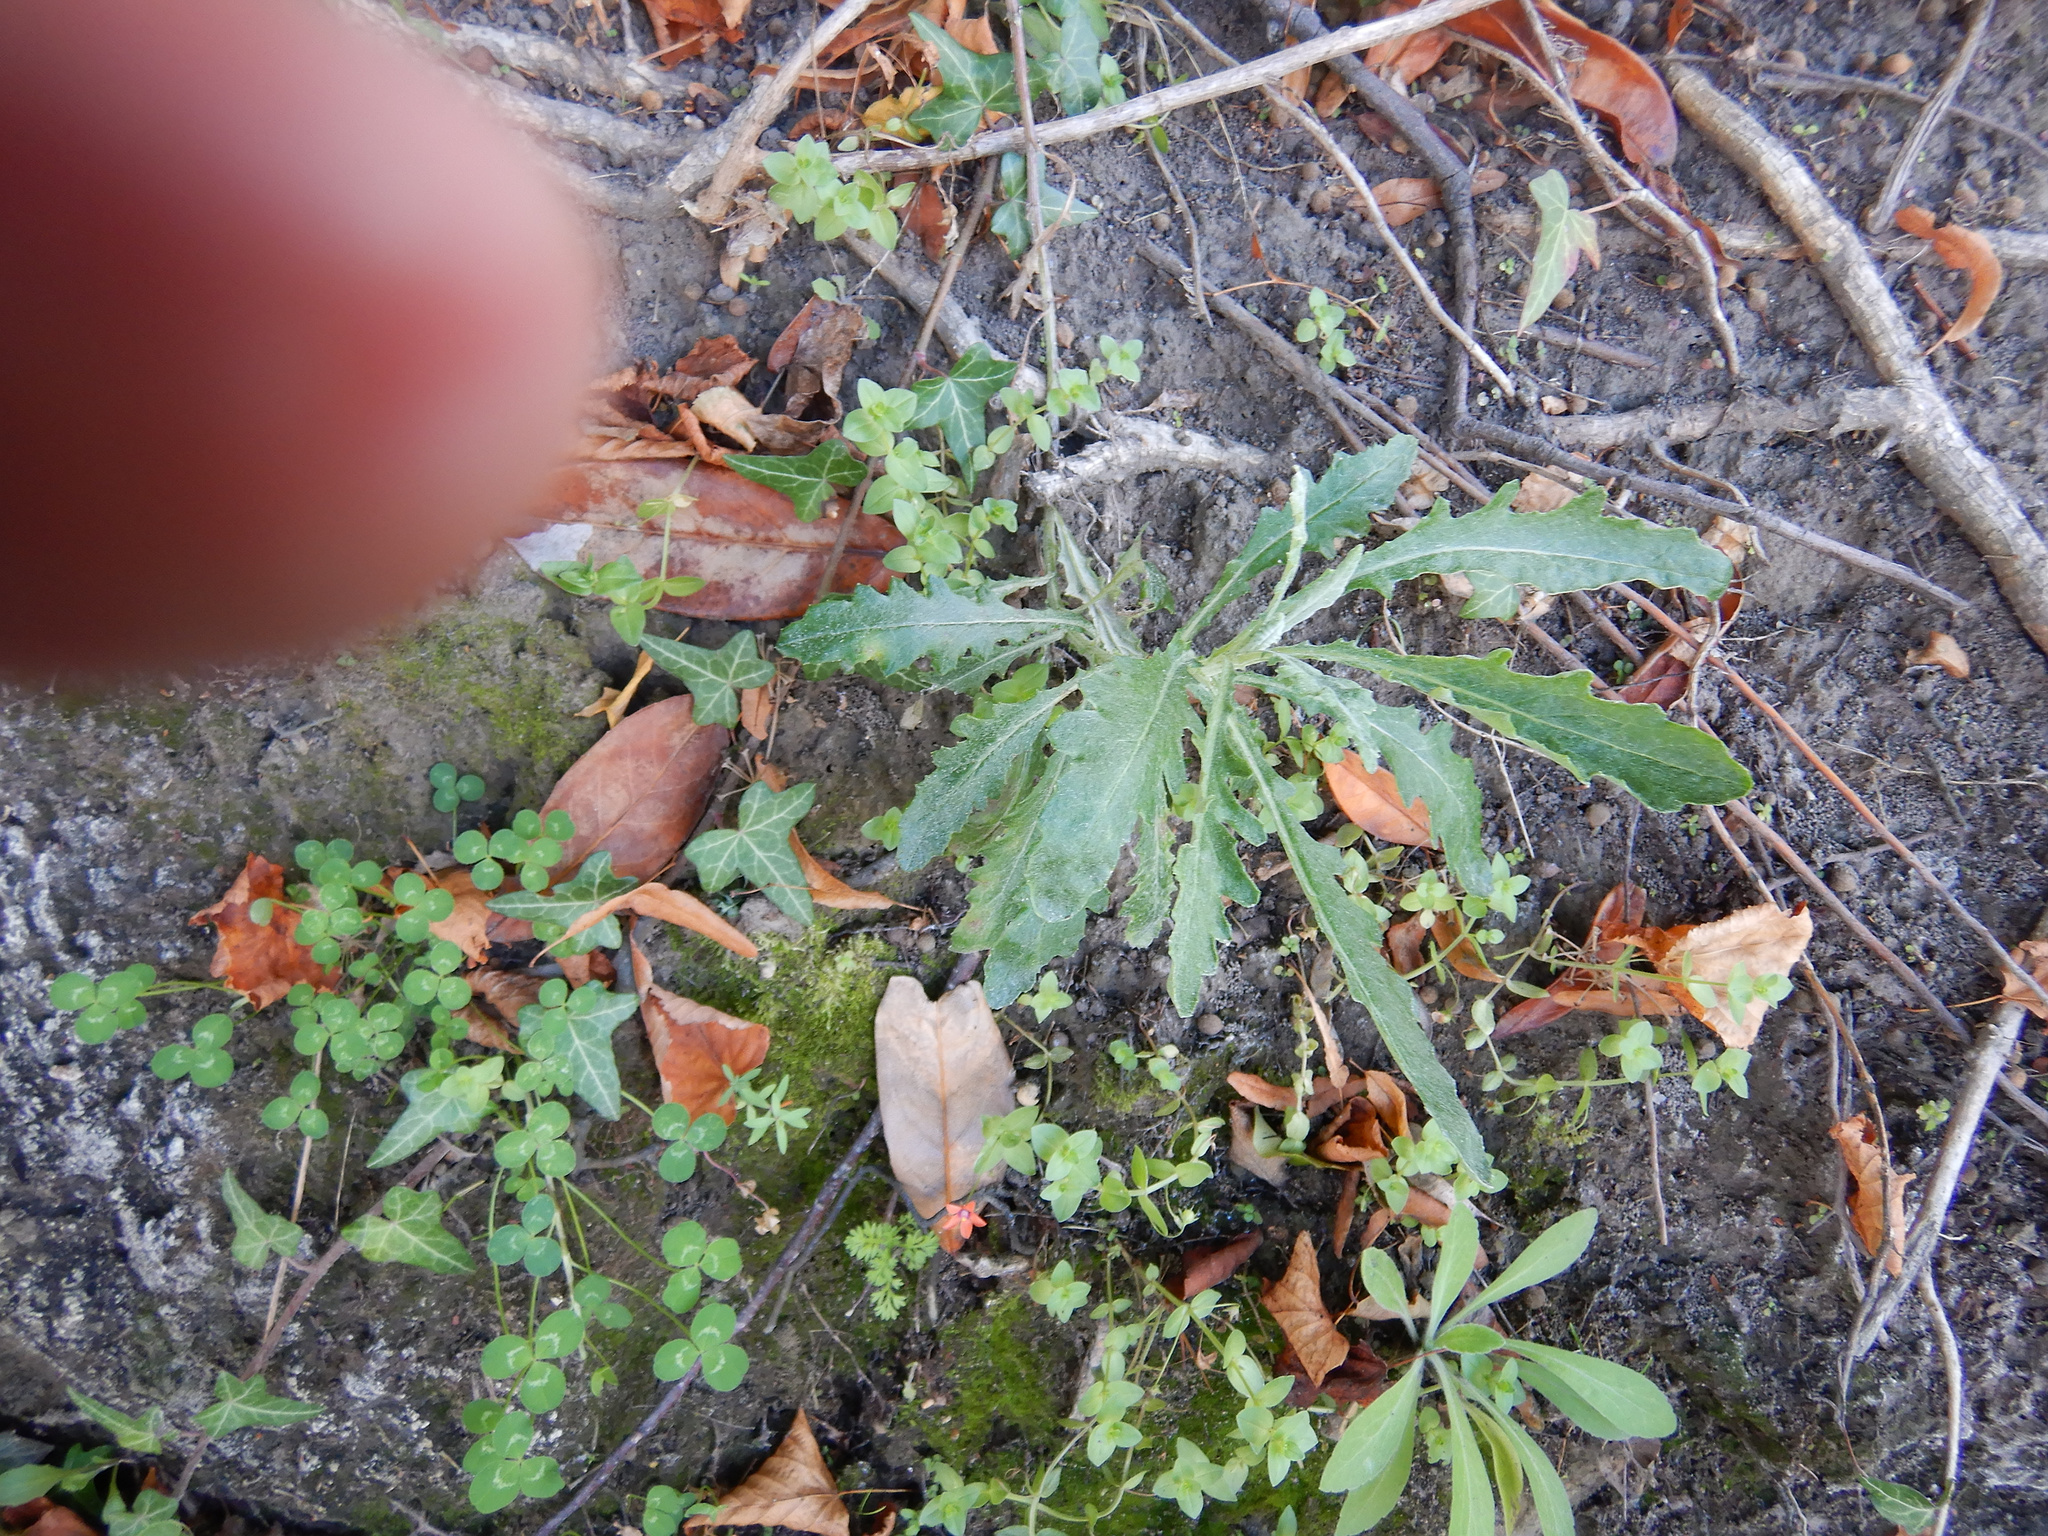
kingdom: Plantae
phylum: Tracheophyta
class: Magnoliopsida
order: Asterales
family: Asteraceae
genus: Senecio
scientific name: Senecio glomeratus
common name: Cutleaf burnweed
